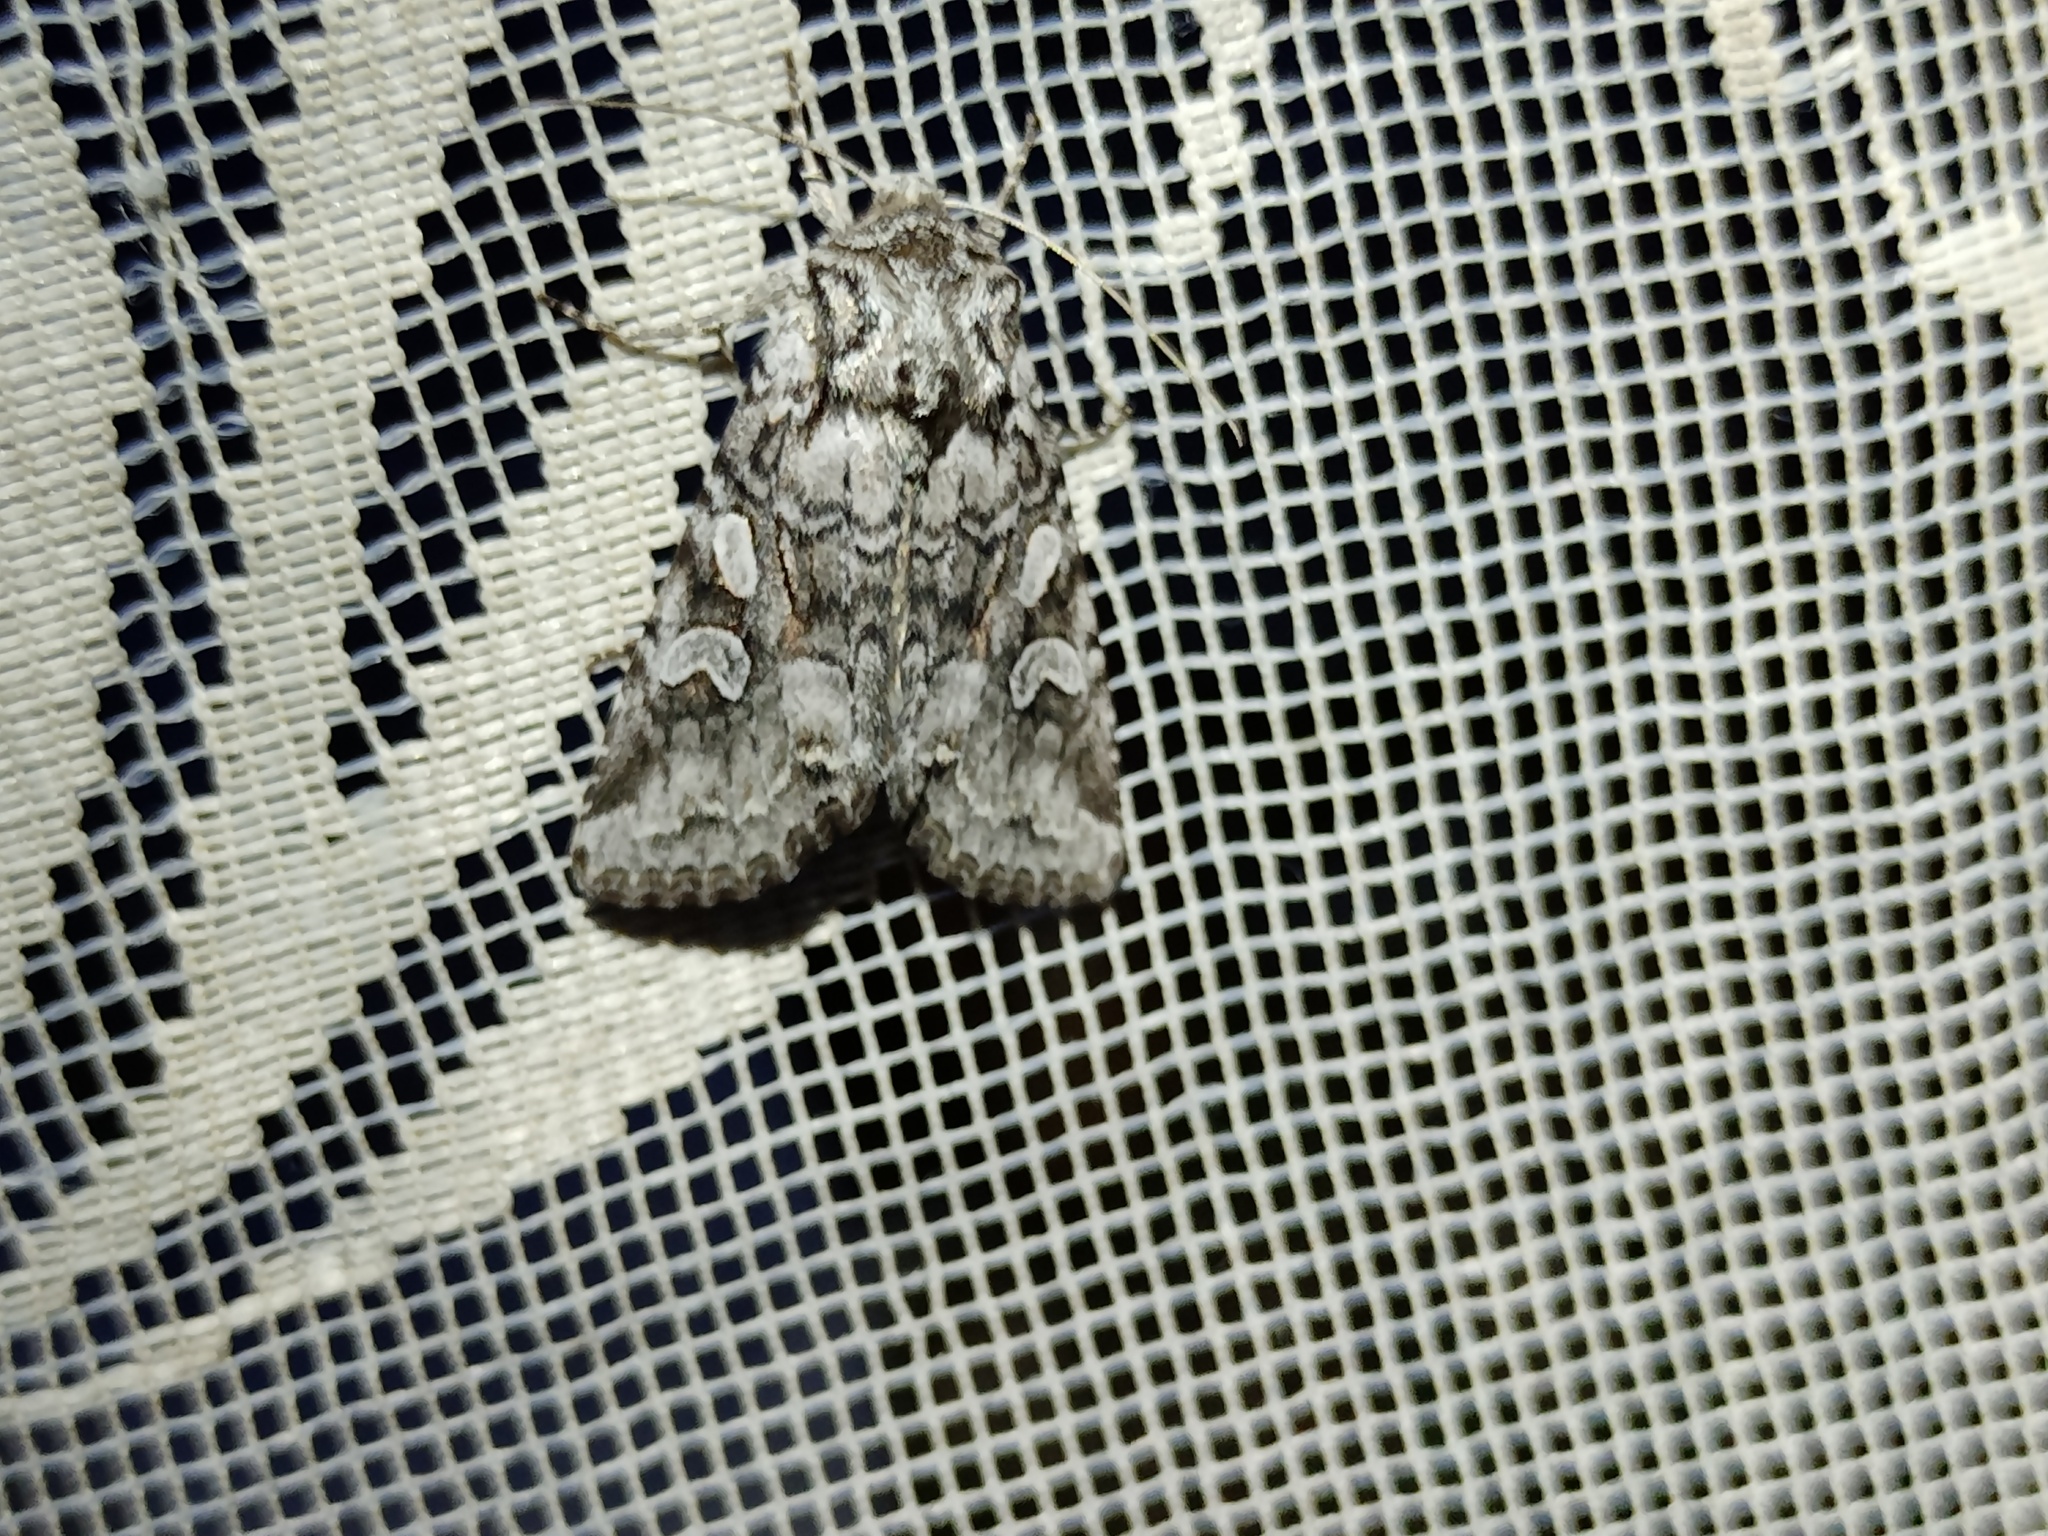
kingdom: Animalia
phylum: Arthropoda
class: Insecta
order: Lepidoptera
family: Noctuidae
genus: Lasionycta
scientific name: Lasionycta proxima
